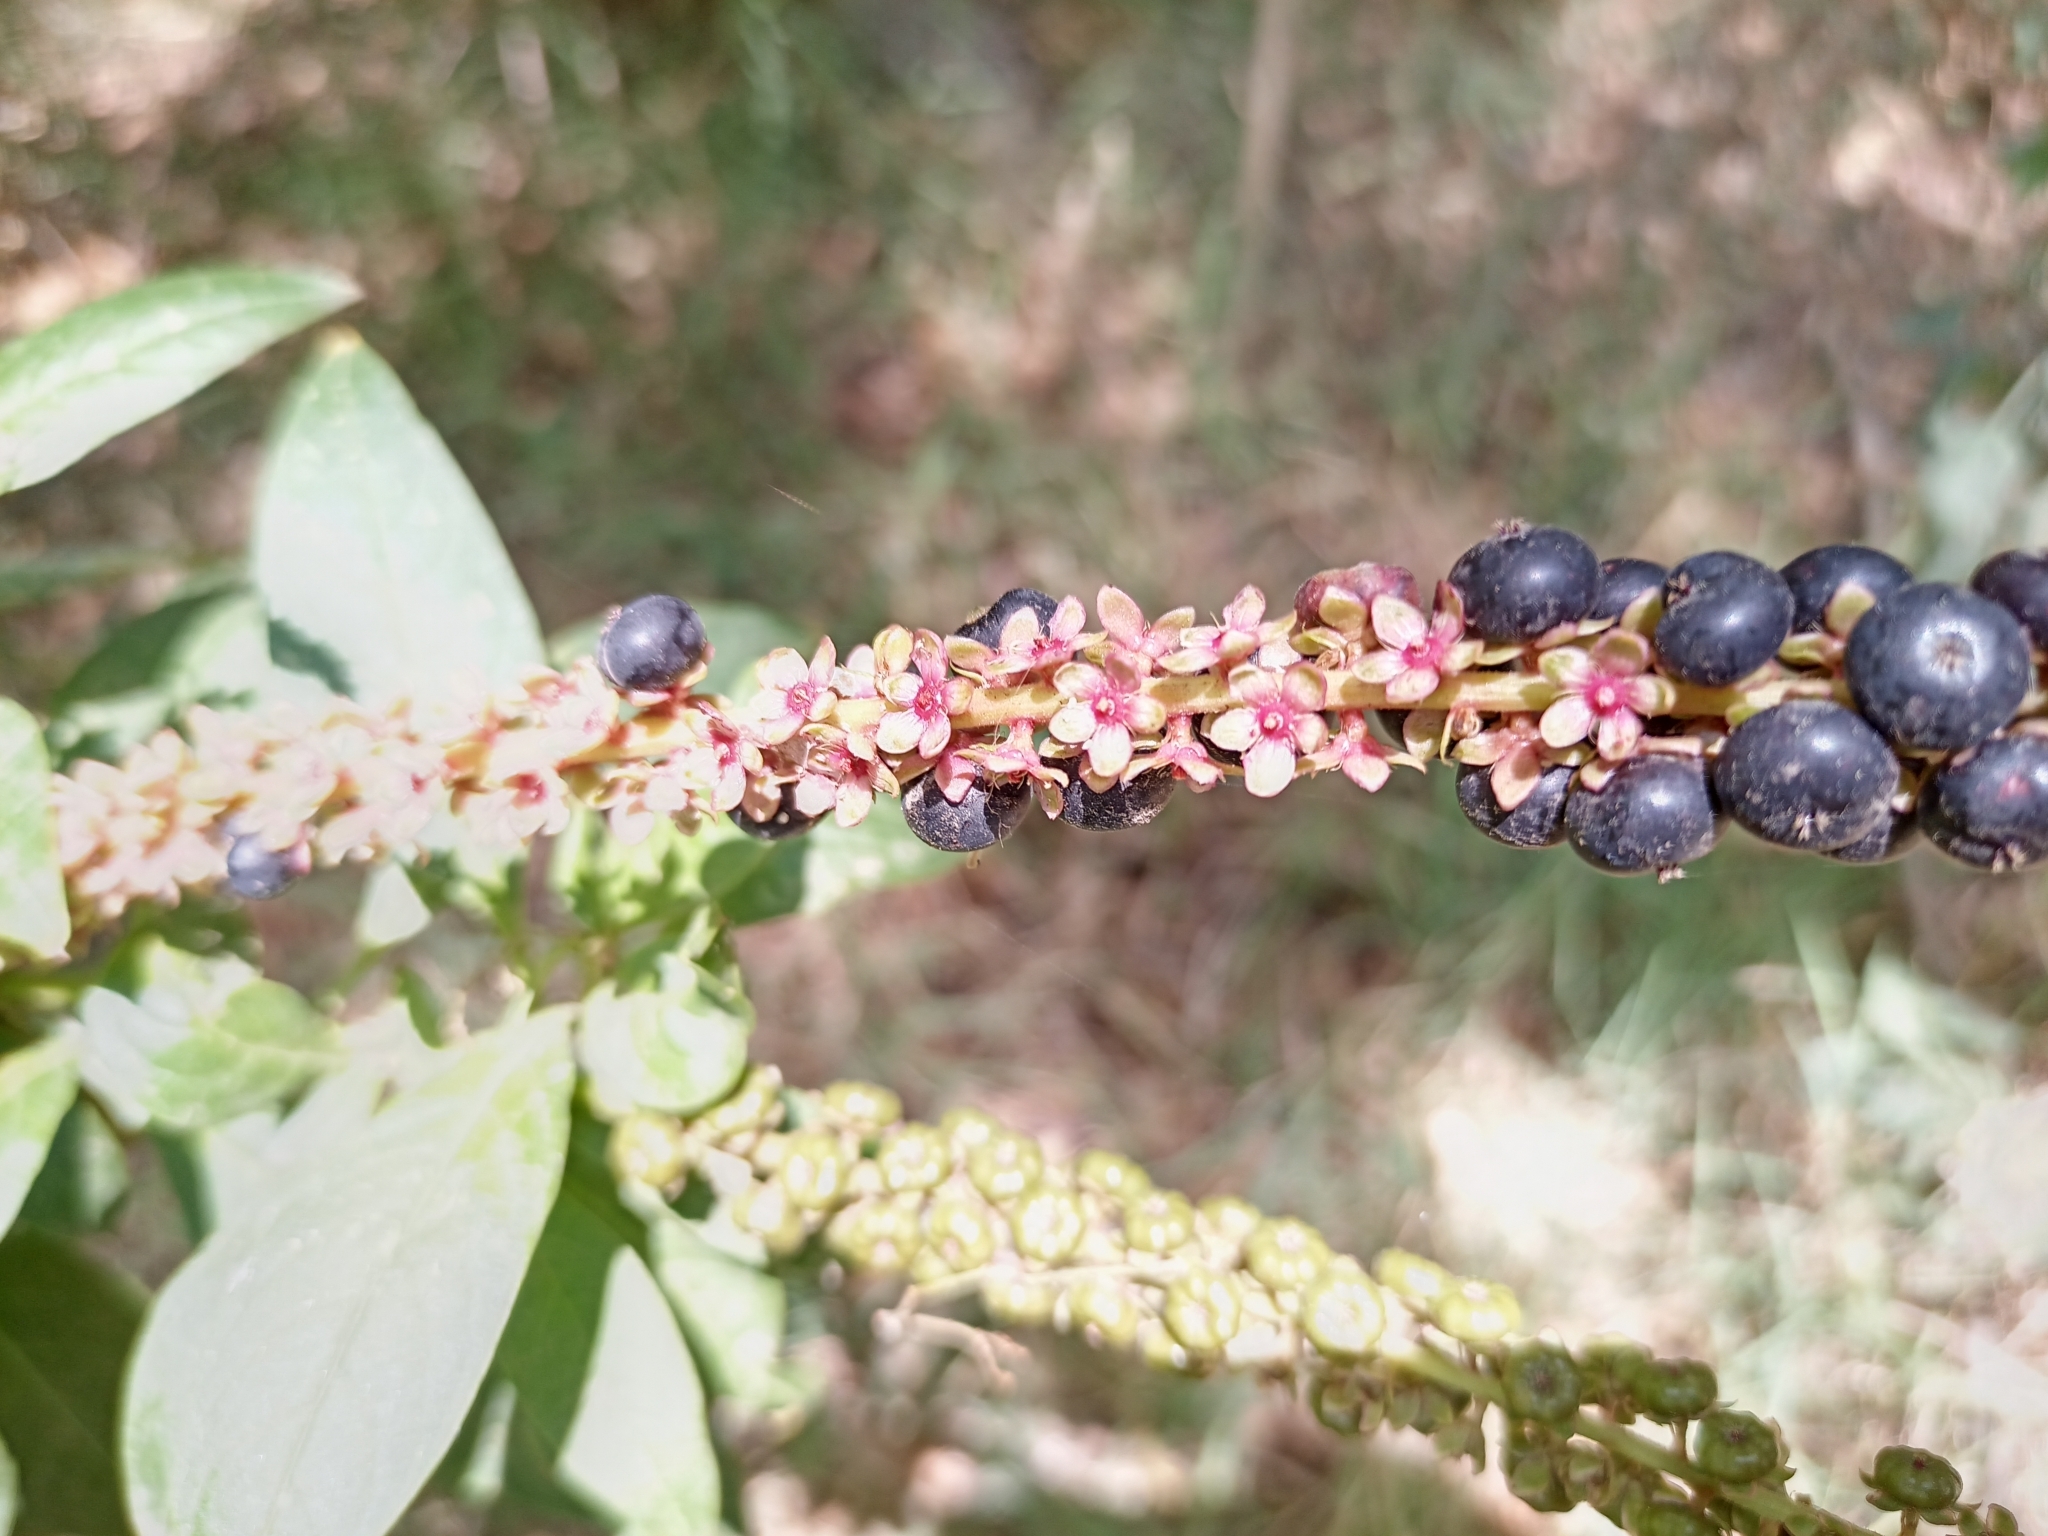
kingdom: Plantae
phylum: Tracheophyta
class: Magnoliopsida
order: Caryophyllales
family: Phytolaccaceae
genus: Phytolacca
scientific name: Phytolacca icosandra
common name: Button pokeweed
